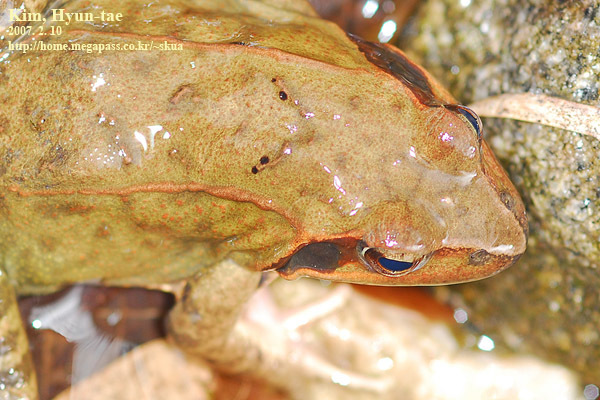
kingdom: Animalia
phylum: Chordata
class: Amphibia
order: Anura
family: Ranidae
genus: Rana
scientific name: Rana uenoi
